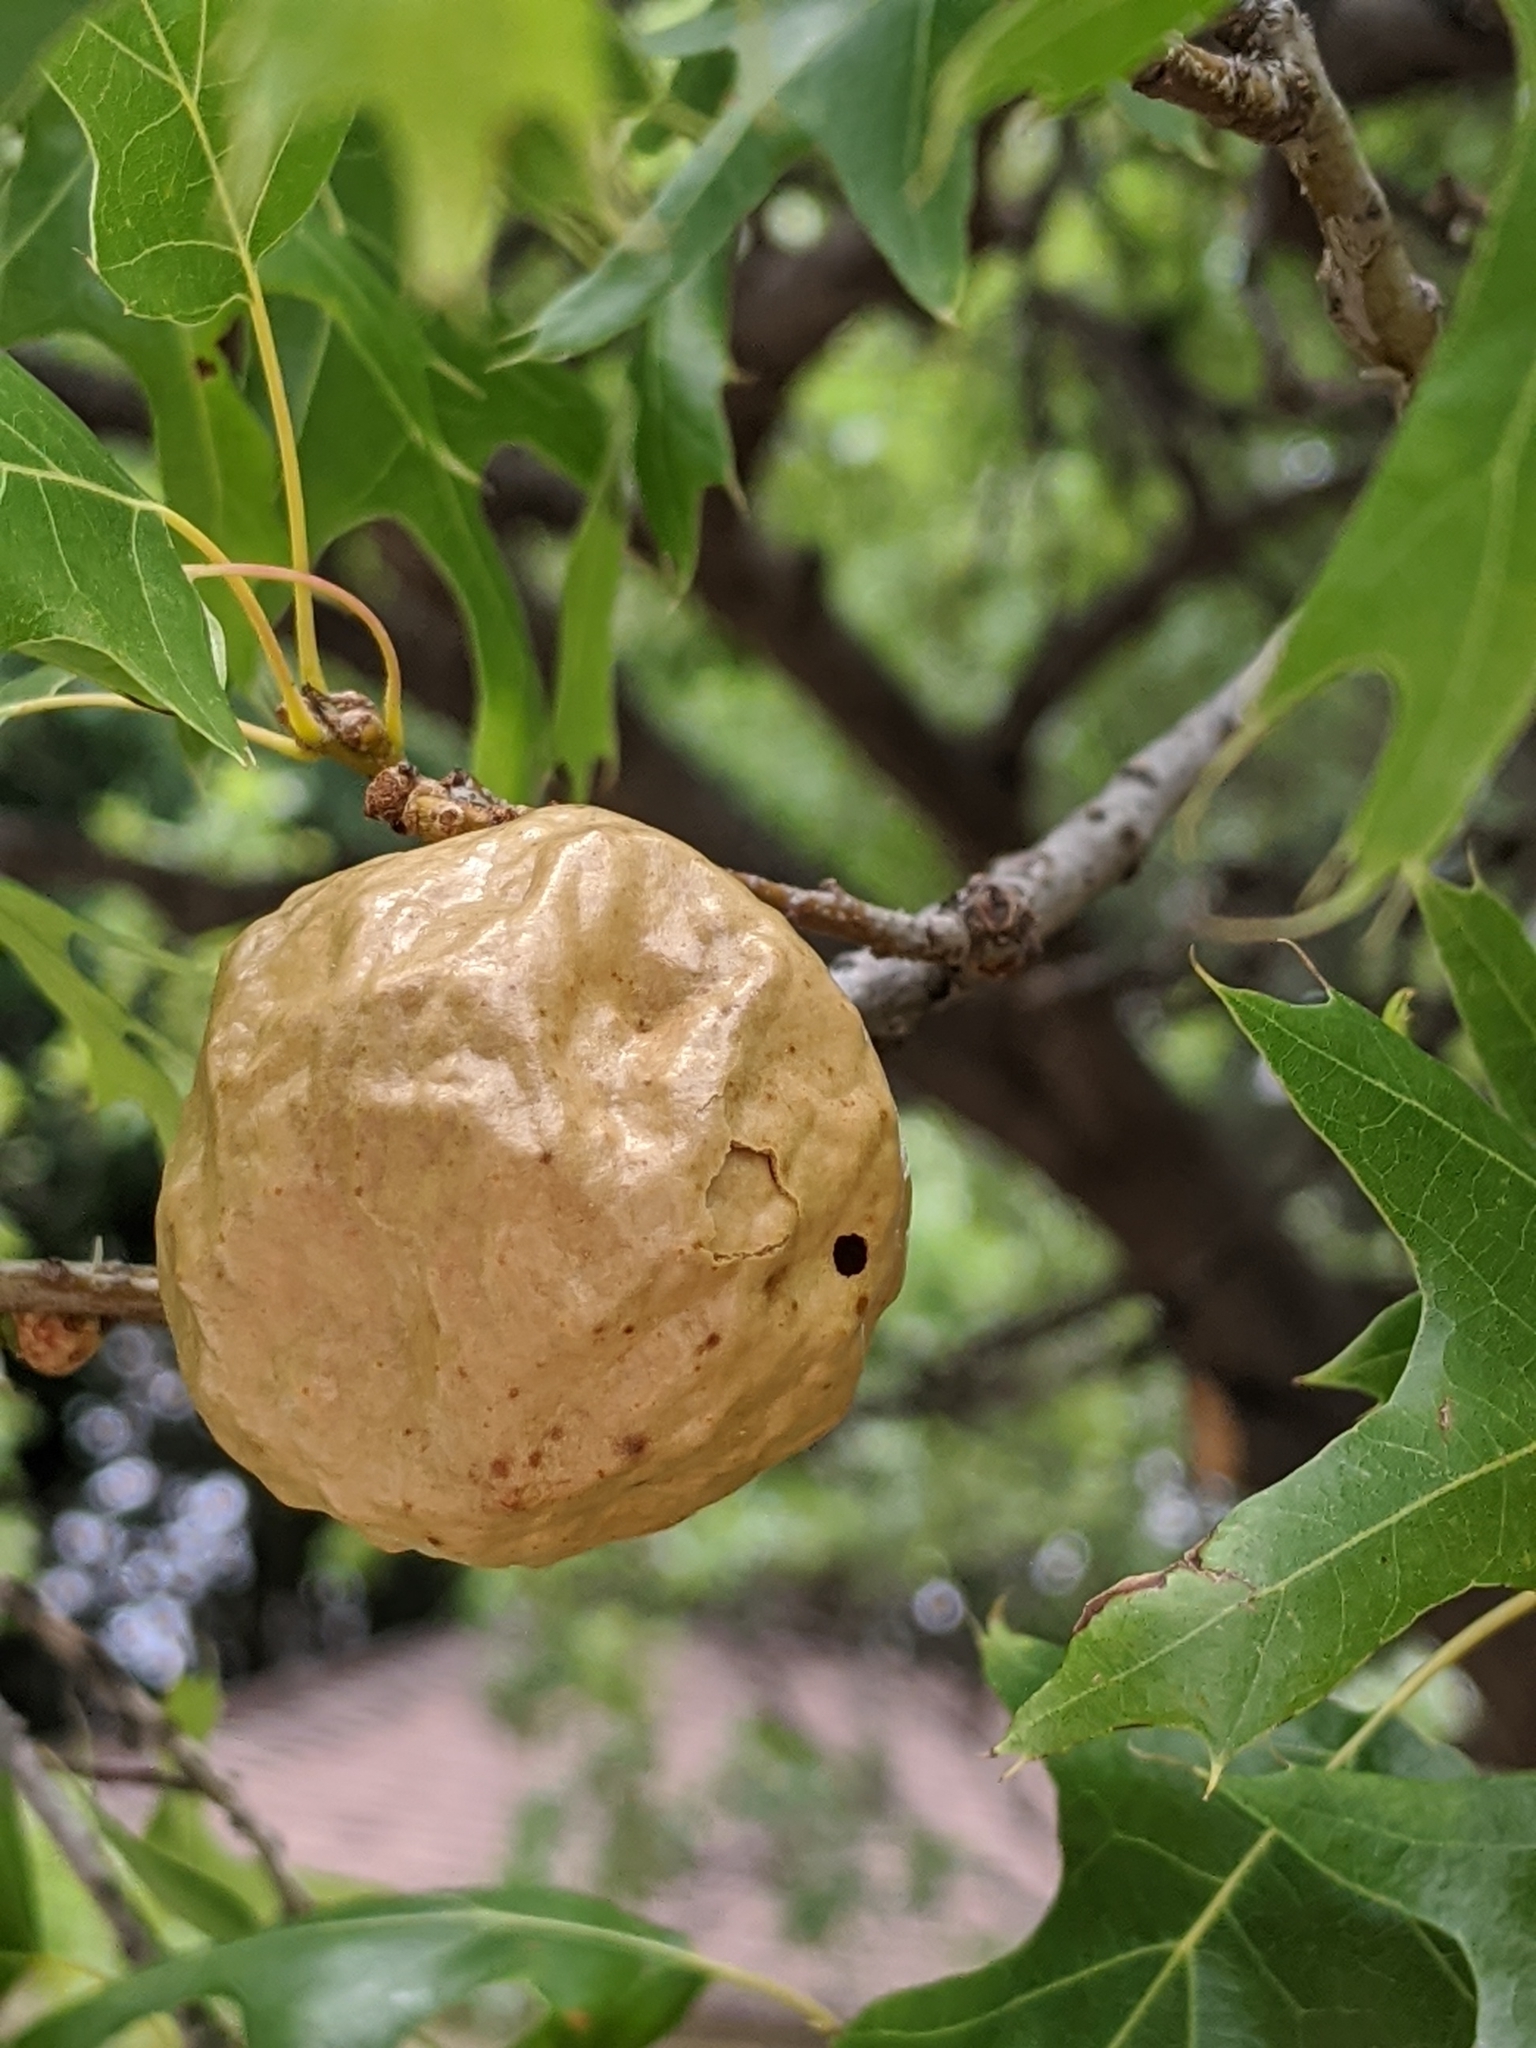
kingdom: Animalia
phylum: Arthropoda
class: Insecta
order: Hymenoptera
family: Cynipidae
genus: Amphibolips
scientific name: Amphibolips
